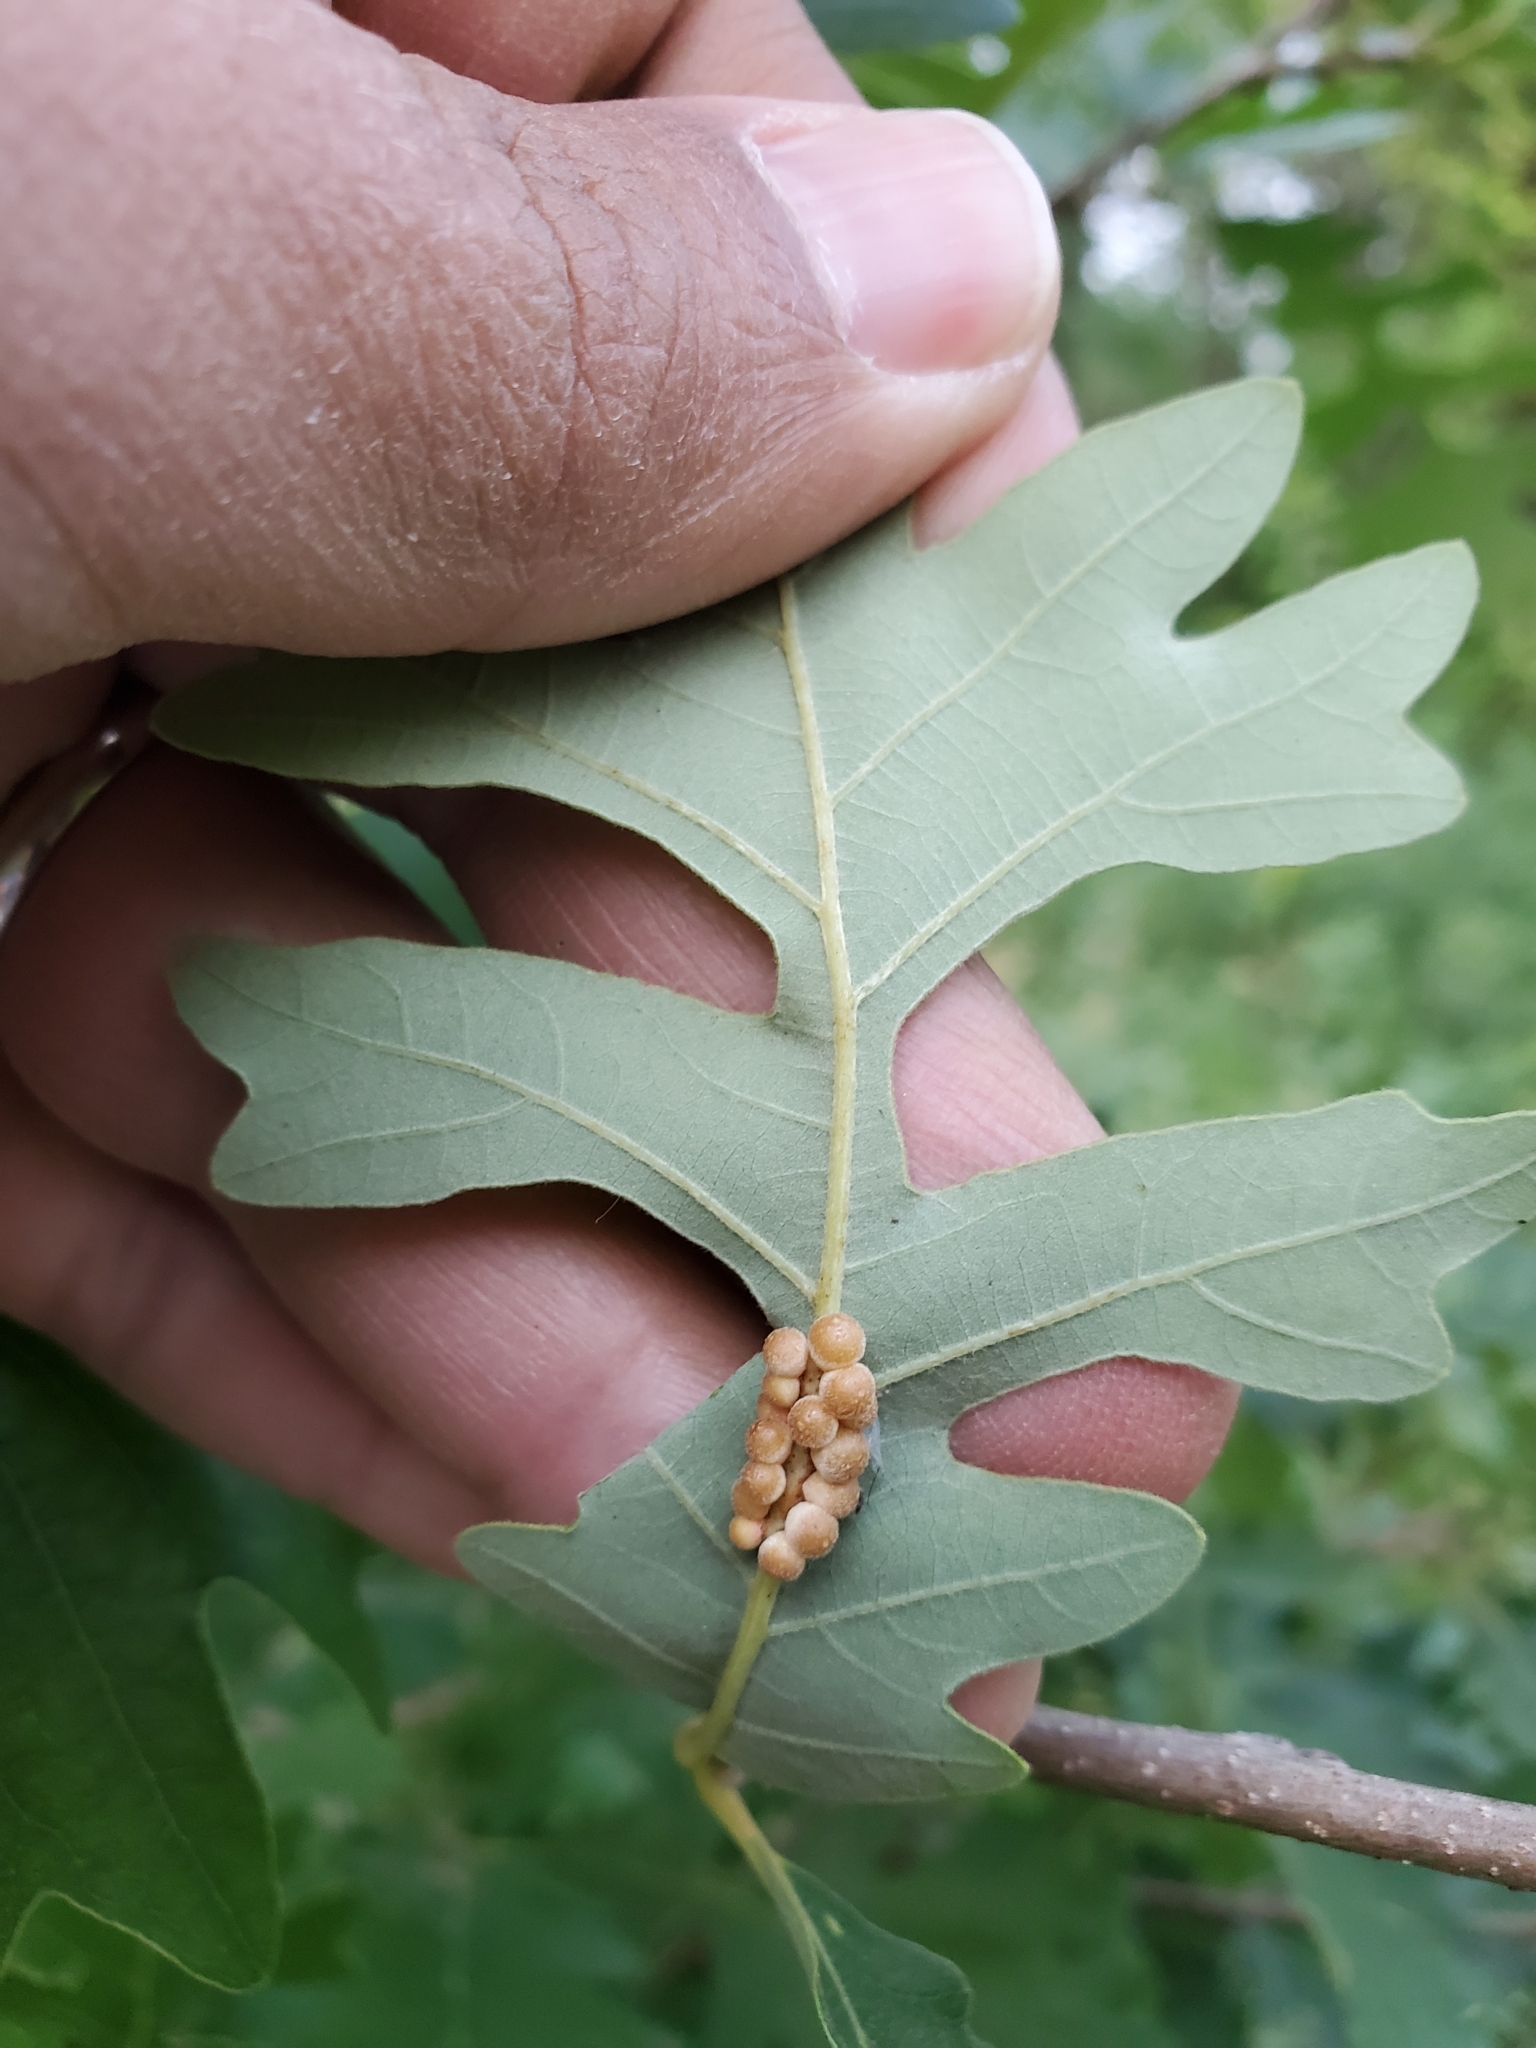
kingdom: Animalia
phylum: Arthropoda
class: Insecta
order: Hymenoptera
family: Cynipidae
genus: Andricus
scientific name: Andricus
